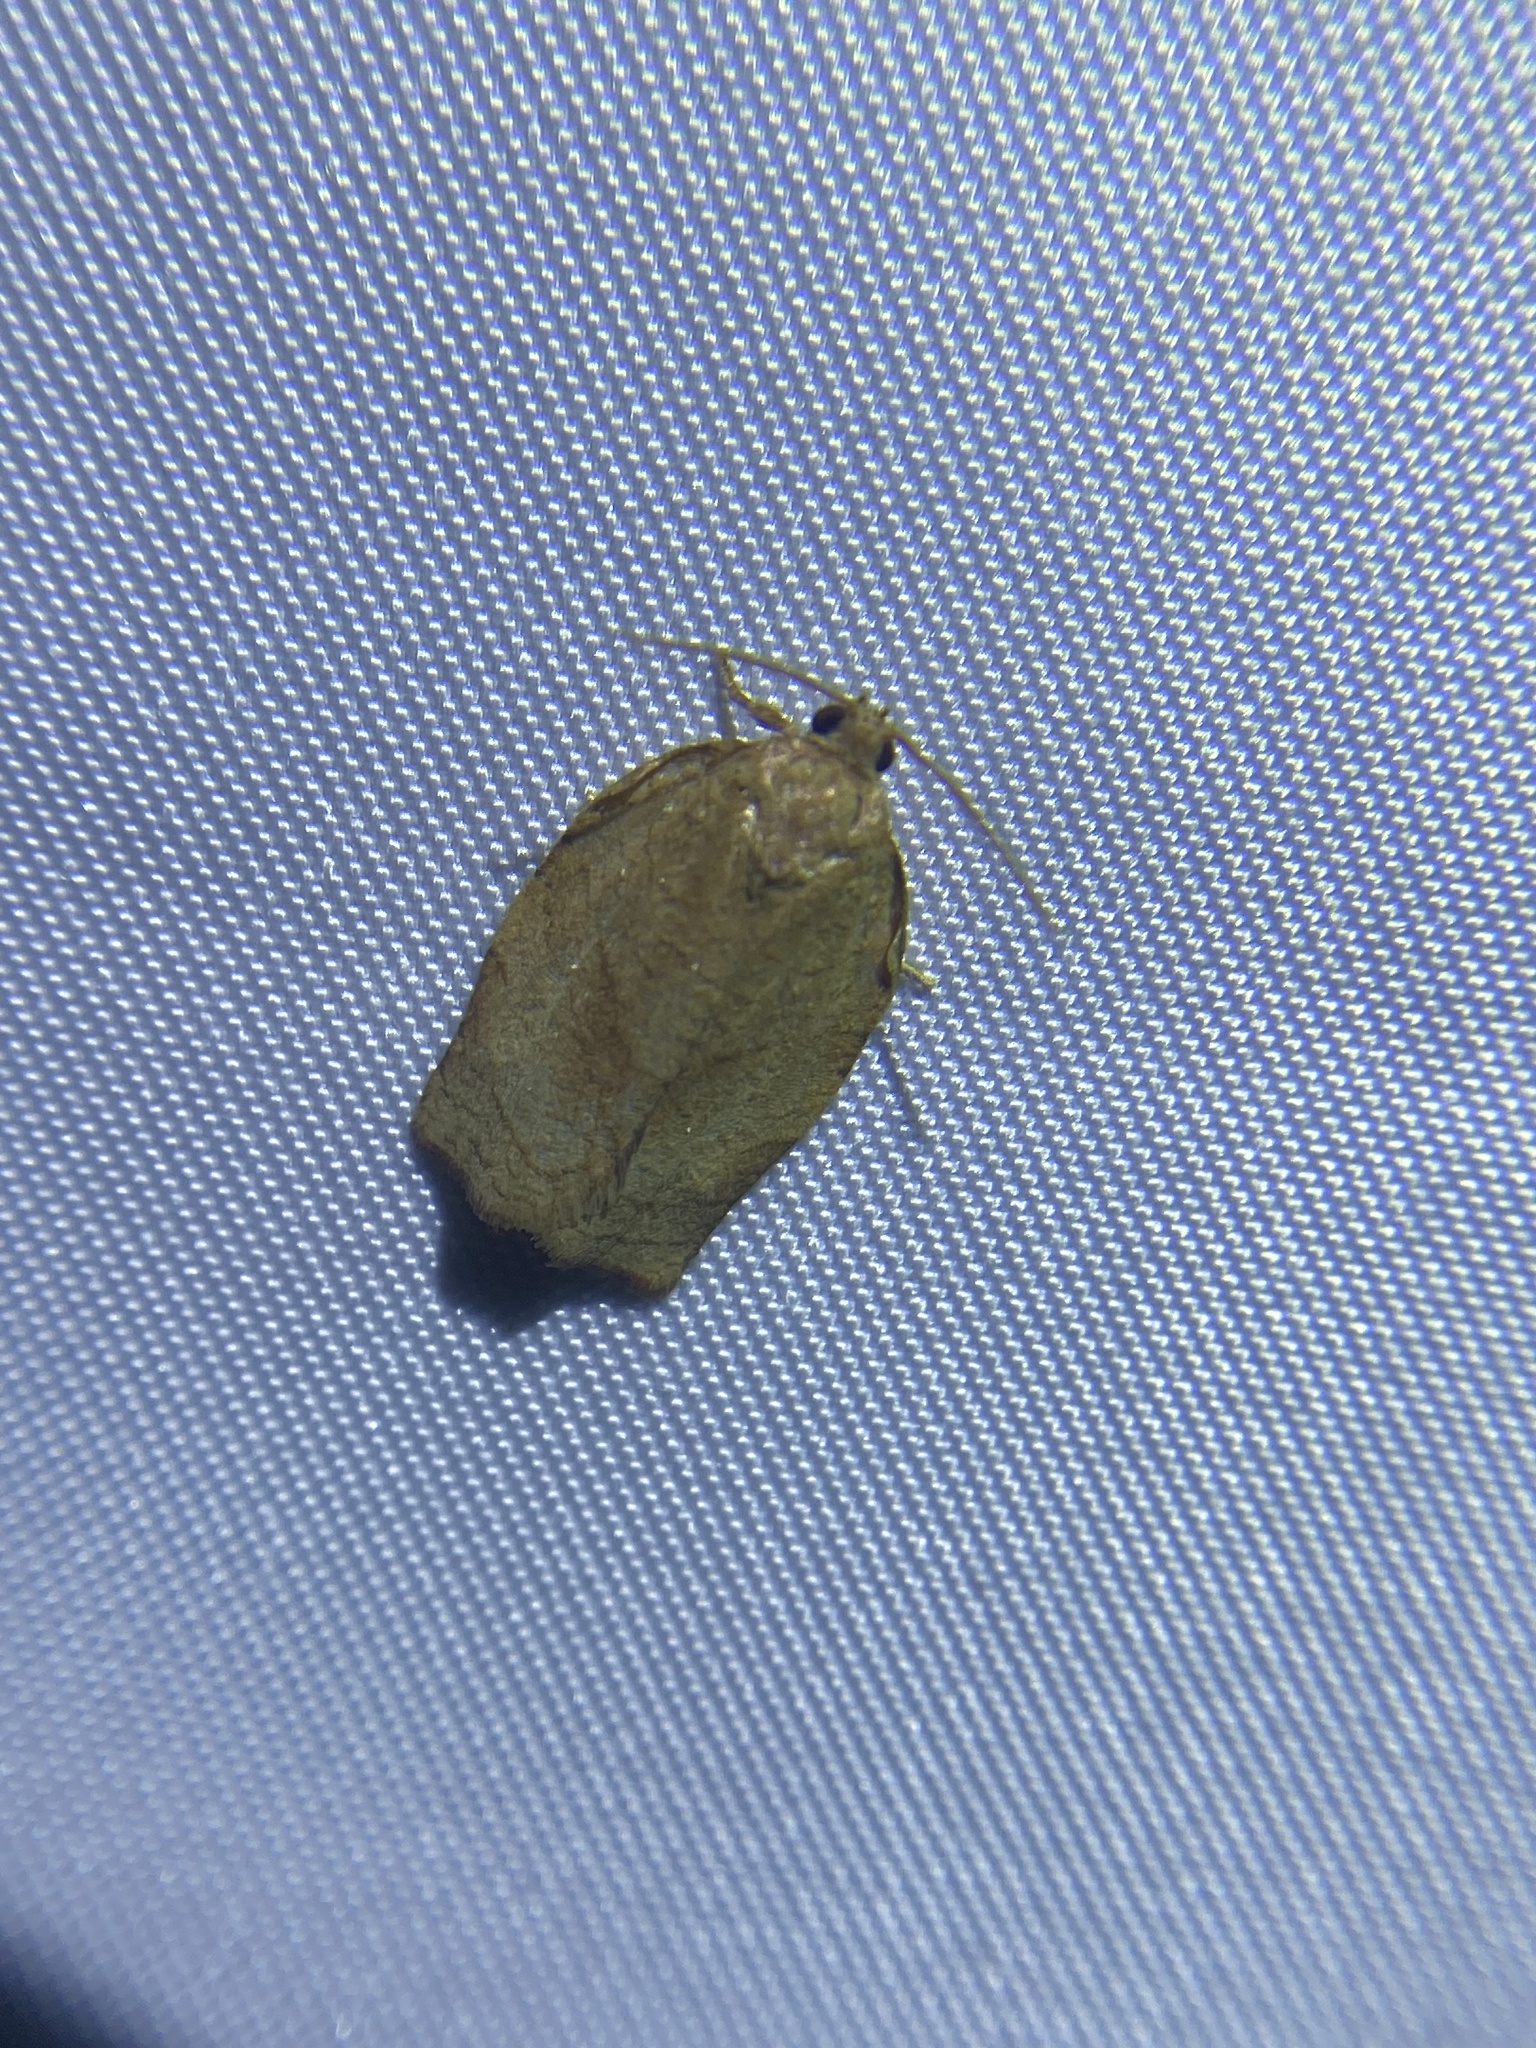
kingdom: Animalia
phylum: Arthropoda
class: Insecta
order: Lepidoptera
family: Tortricidae
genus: Choristoneura
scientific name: Choristoneura rosaceana
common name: Oblique-banded leafroller moth
